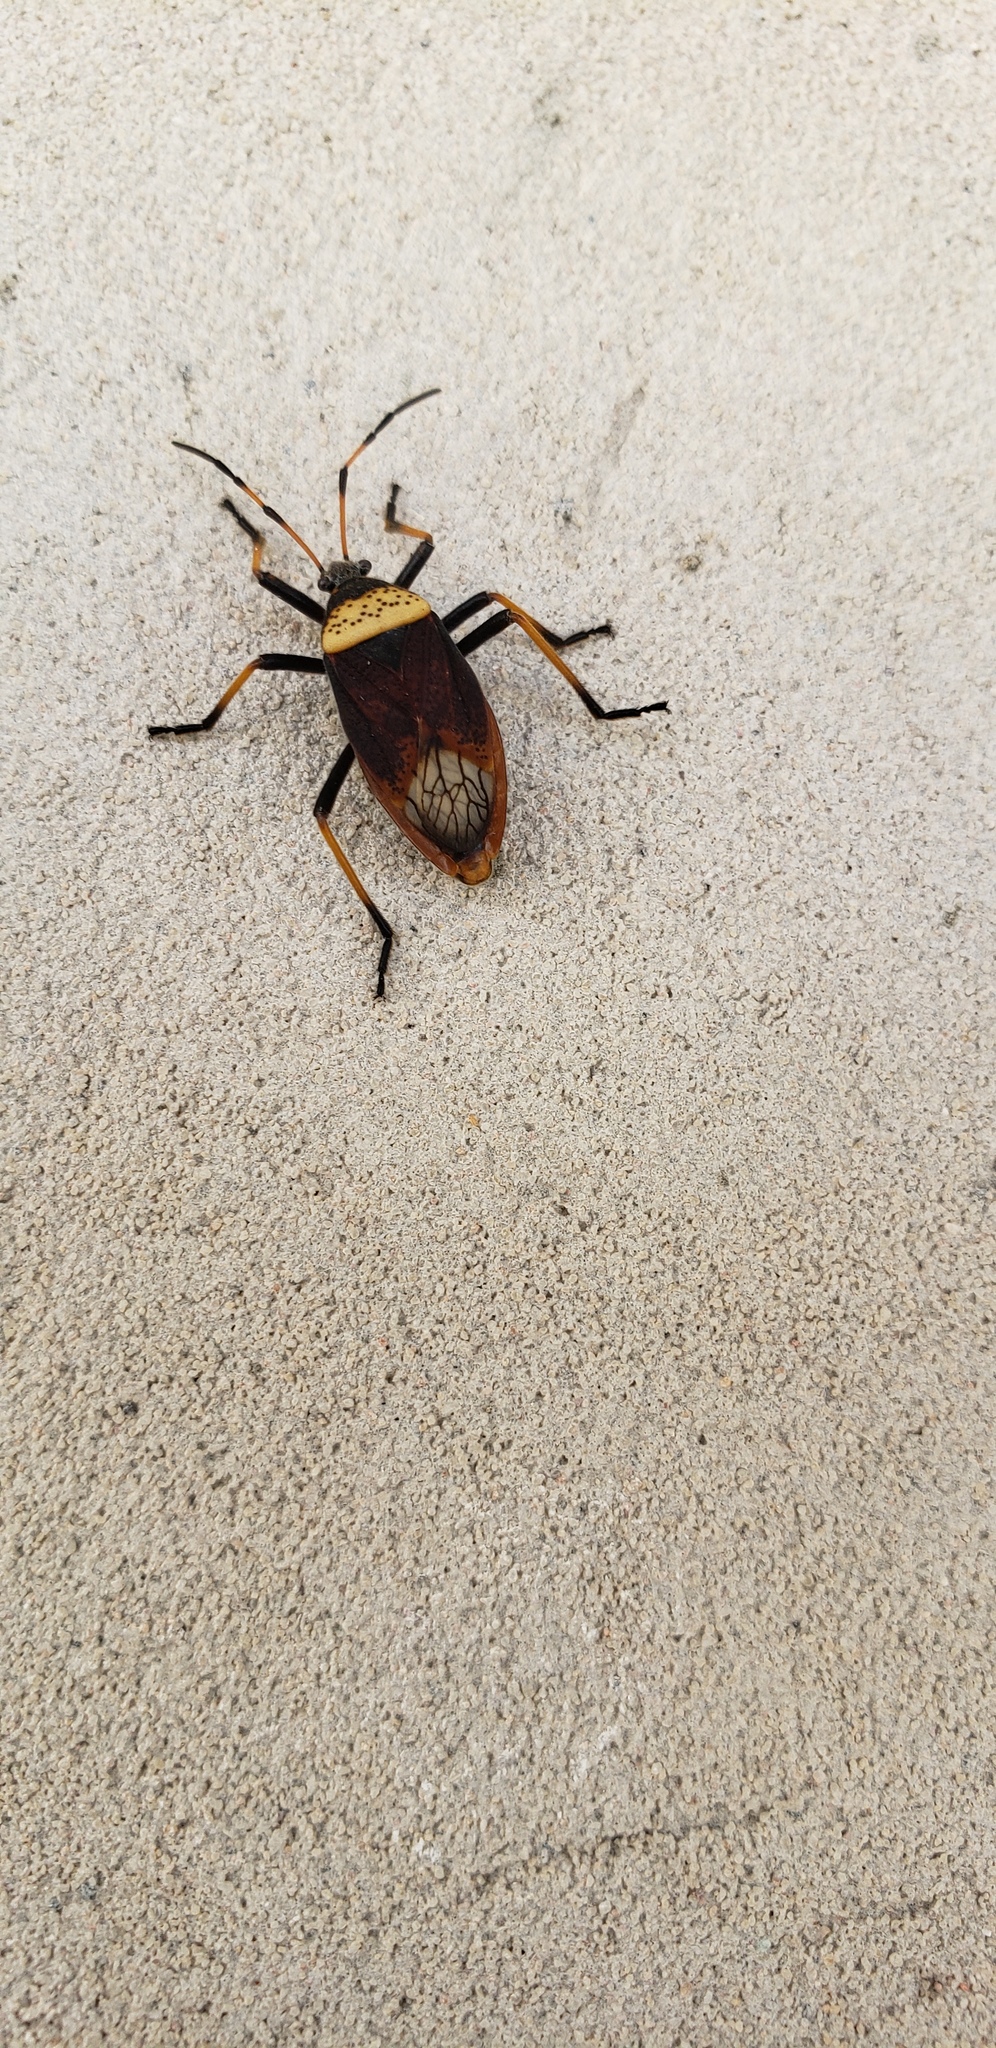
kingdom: Animalia
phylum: Arthropoda
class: Insecta
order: Hemiptera
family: Largidae
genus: Largus
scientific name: Largus humilis
